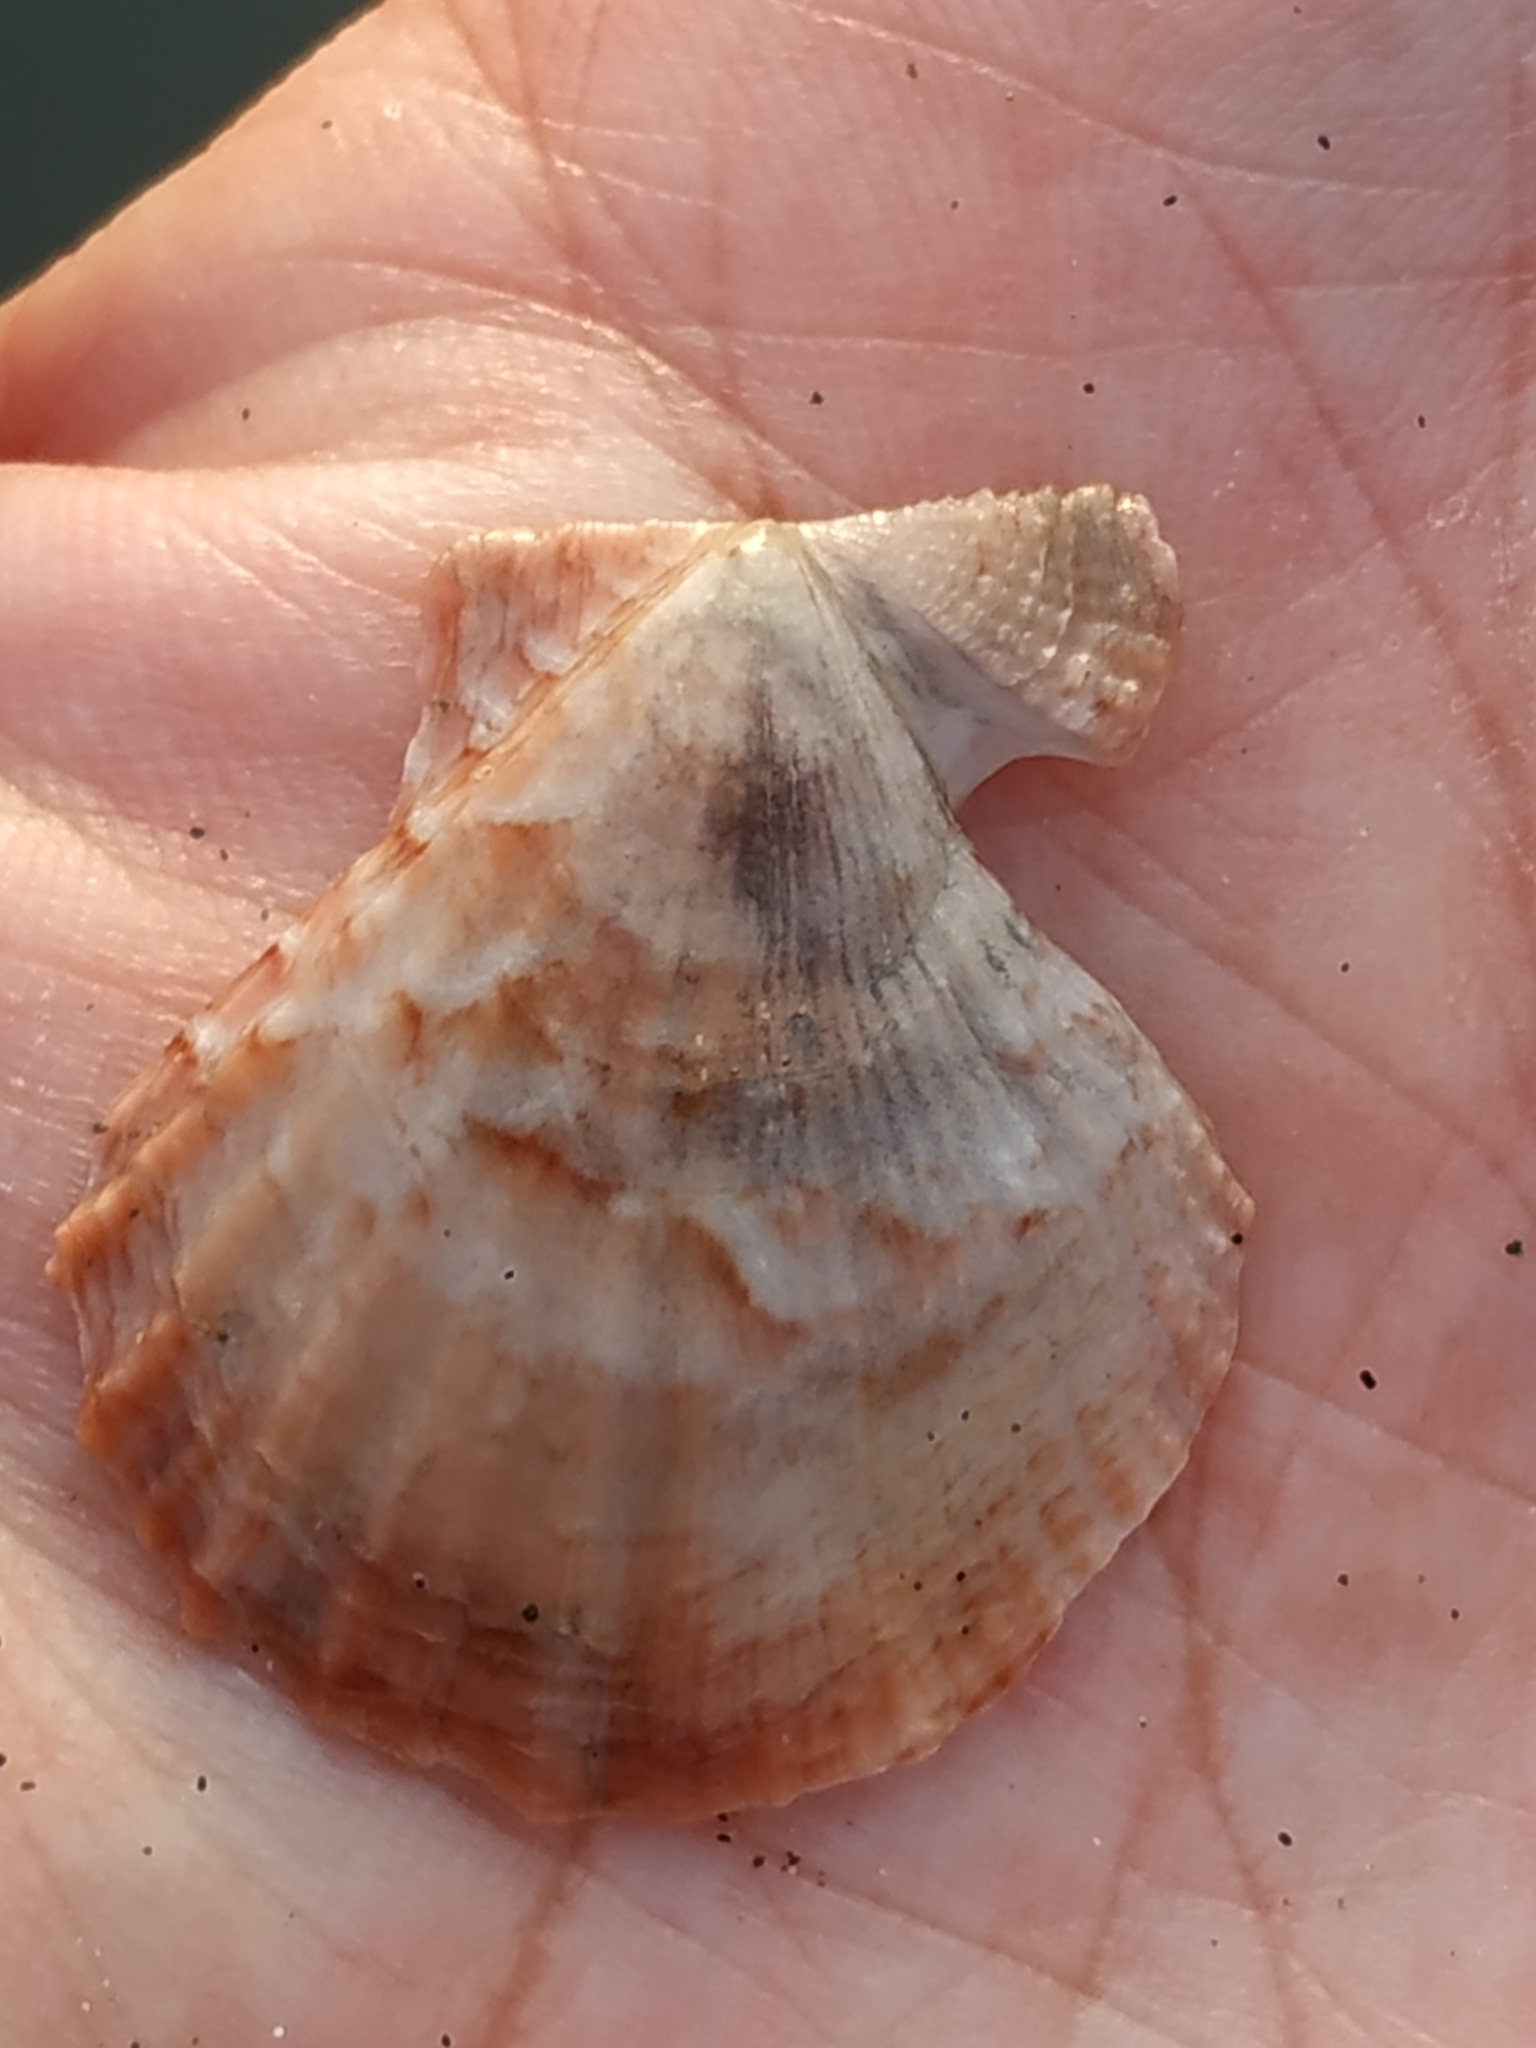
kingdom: Animalia
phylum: Mollusca
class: Bivalvia
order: Pectinida
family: Pectinidae
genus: Scaeochlamys
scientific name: Scaeochlamys squamata
